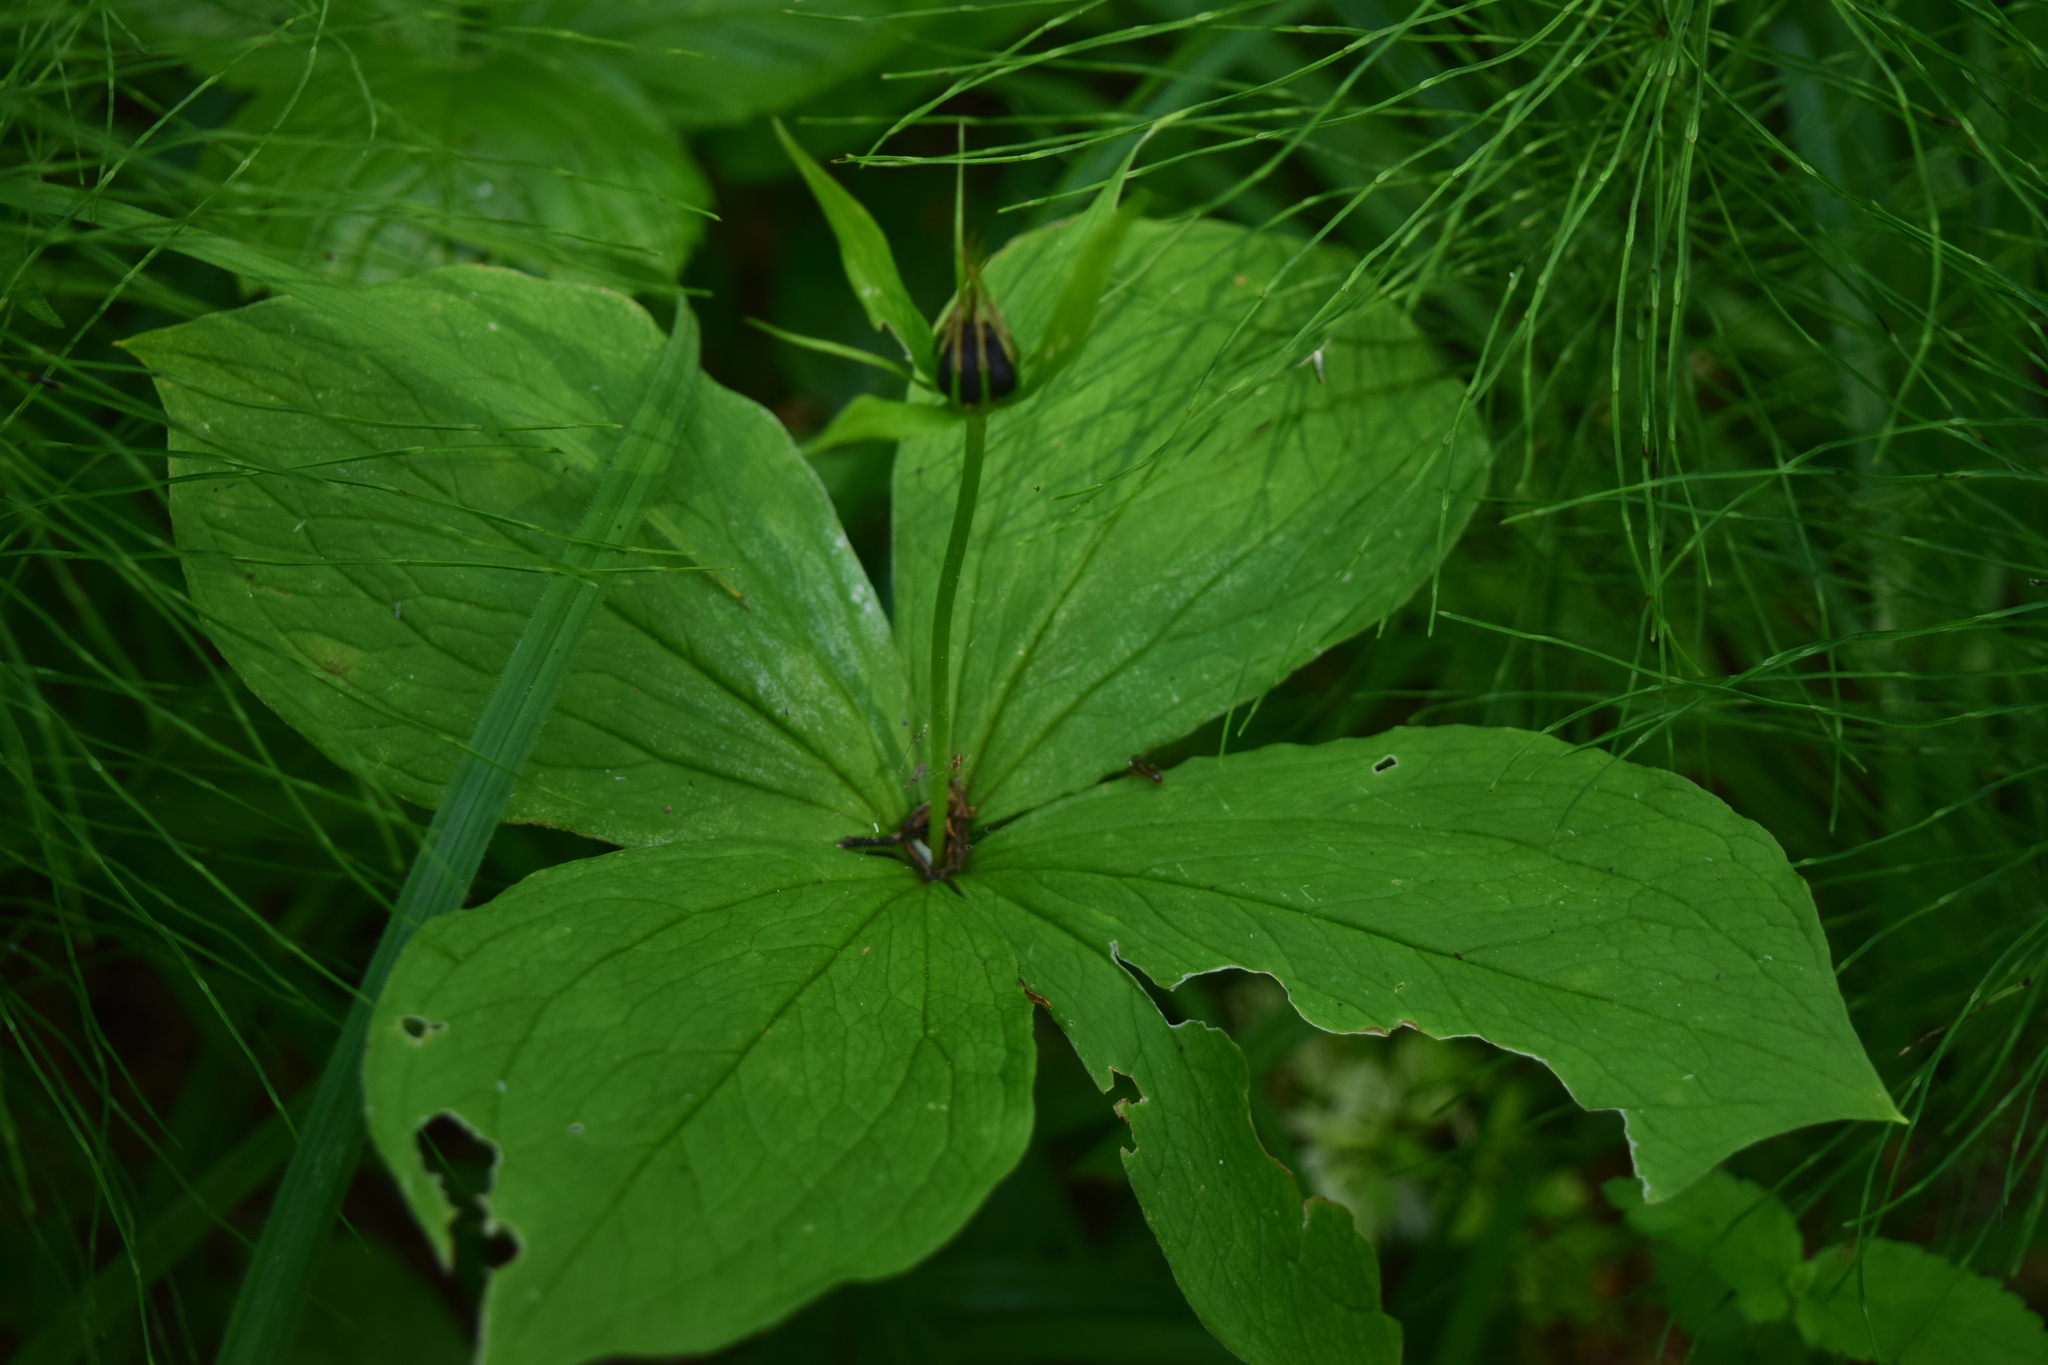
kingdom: Plantae
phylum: Tracheophyta
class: Liliopsida
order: Liliales
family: Melanthiaceae
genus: Paris
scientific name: Paris quadrifolia
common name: Herb-paris
